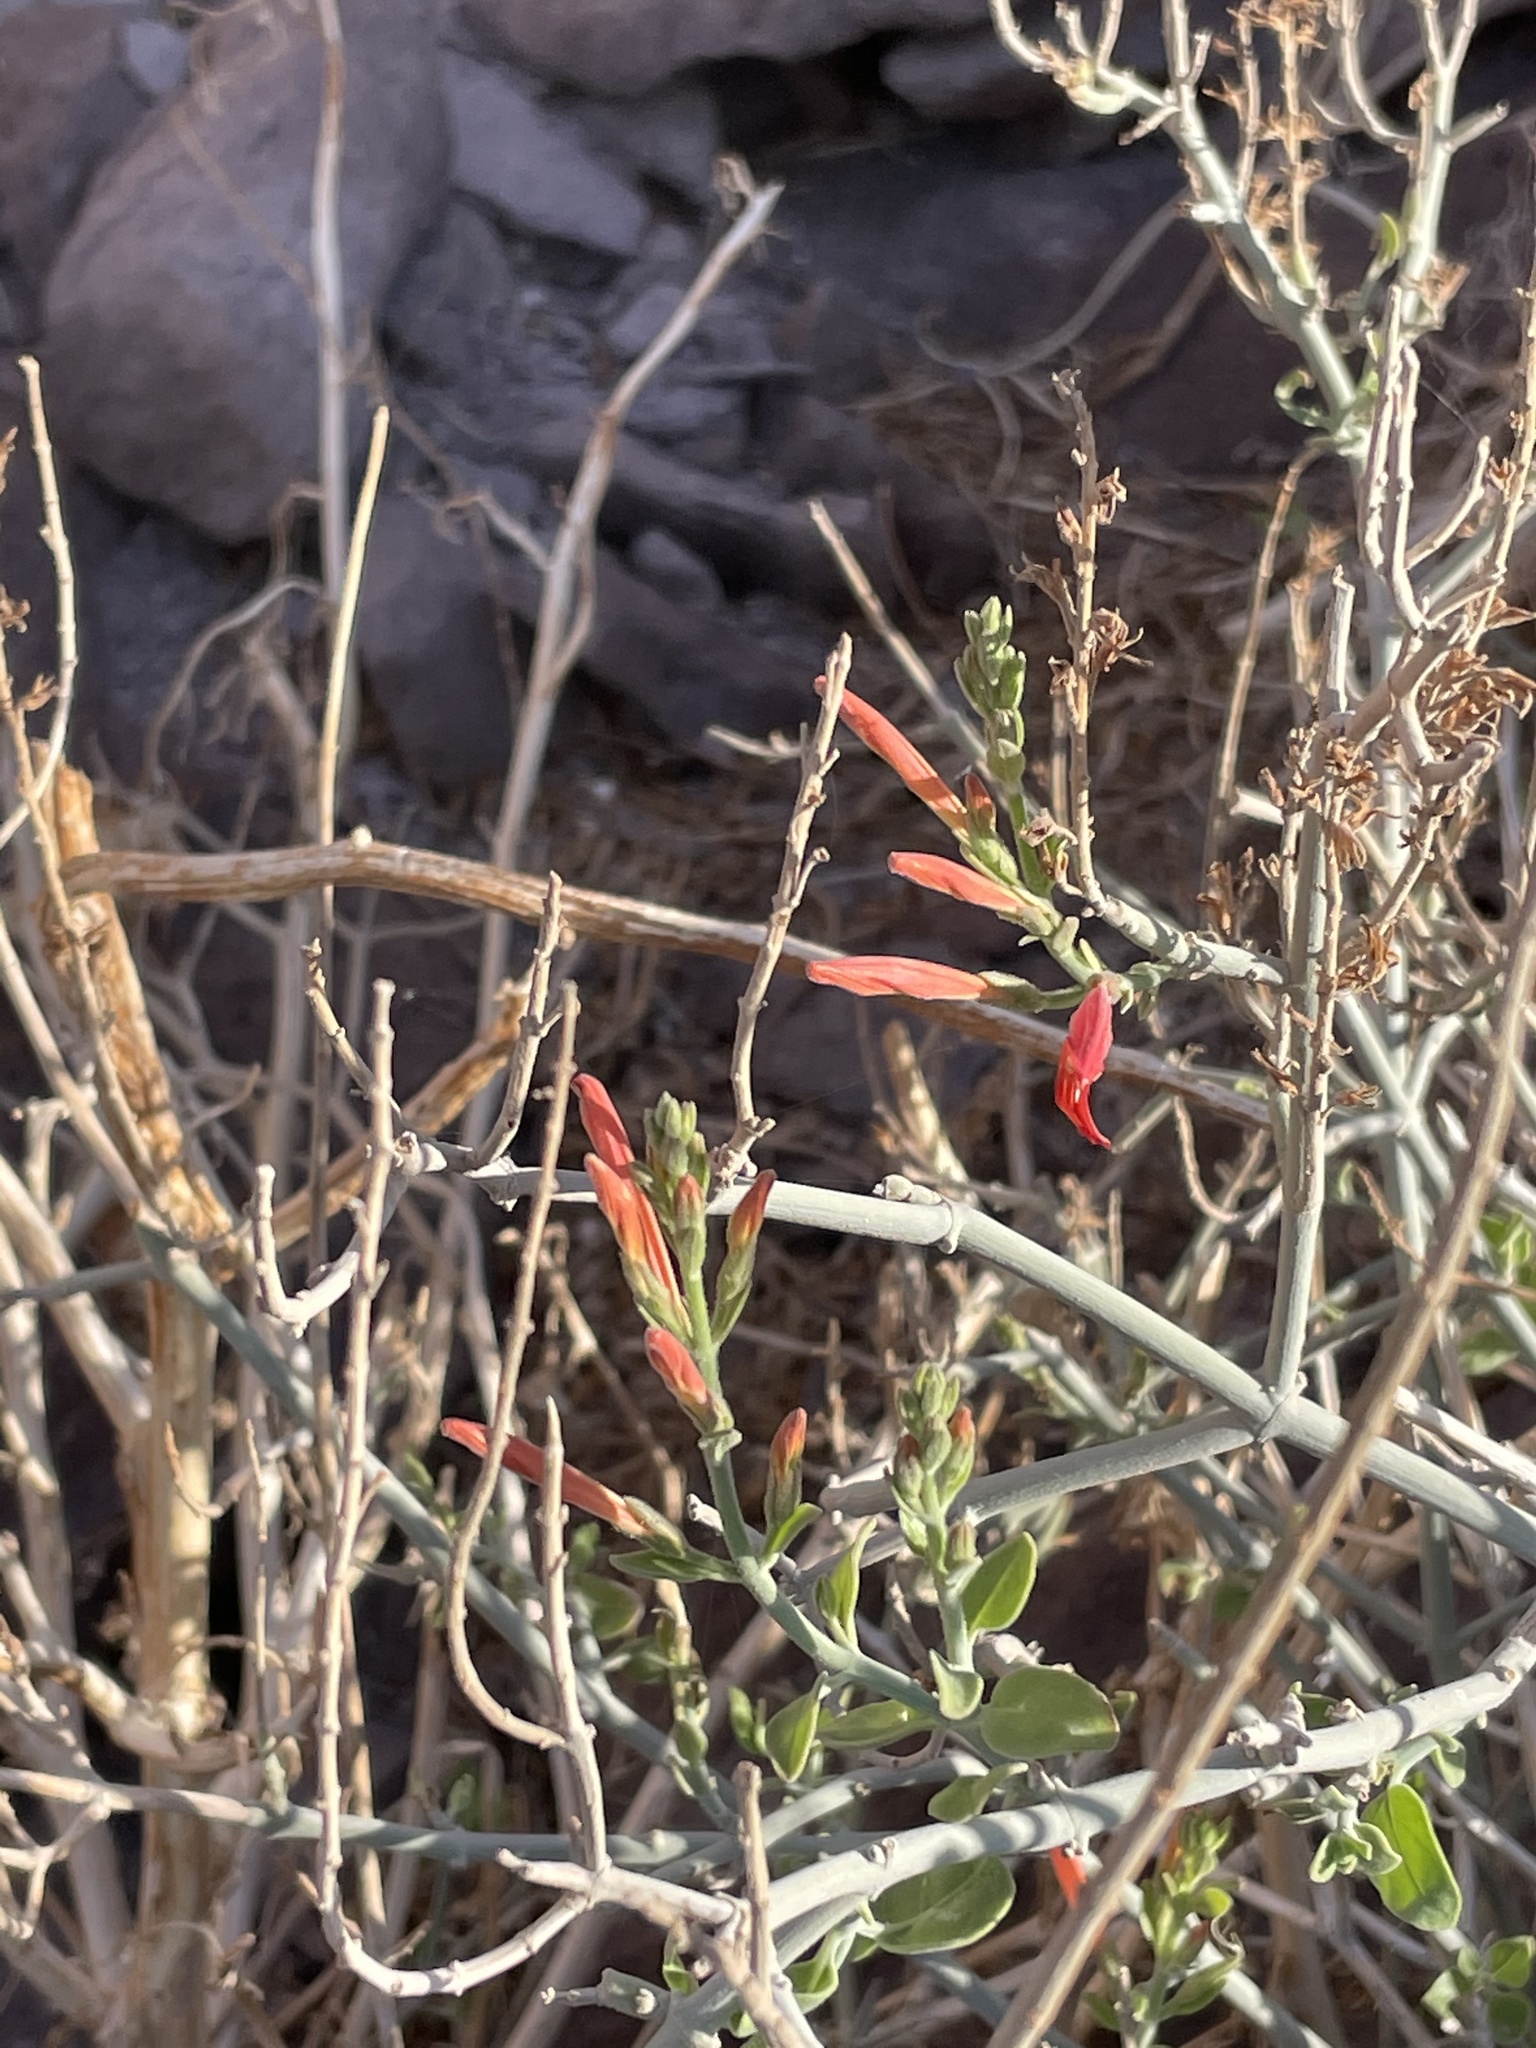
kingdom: Plantae
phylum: Tracheophyta
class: Magnoliopsida
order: Lamiales
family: Acanthaceae
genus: Justicia
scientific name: Justicia californica
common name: Chuparosa-honeysuckle
